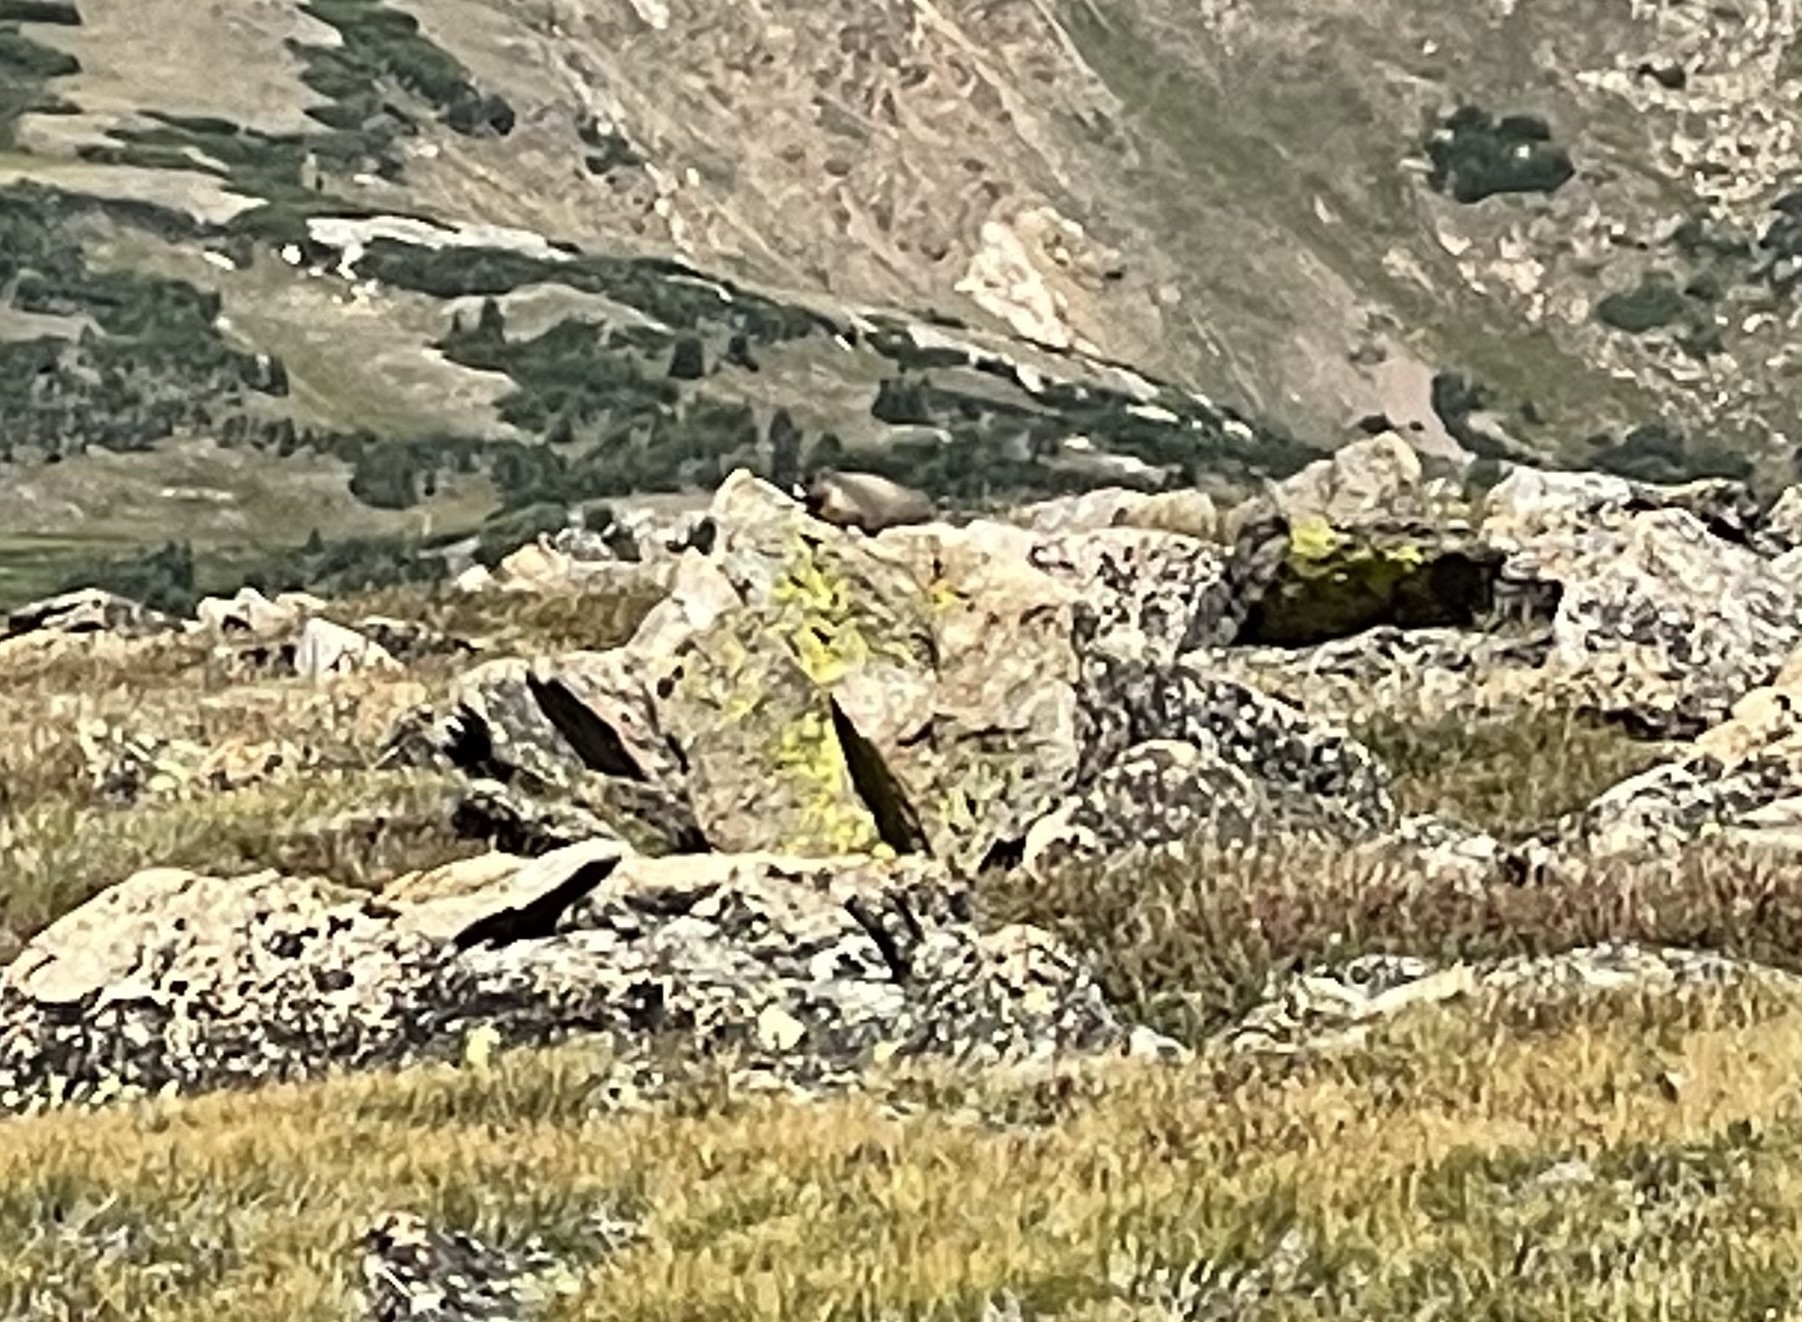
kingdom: Animalia
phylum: Chordata
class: Mammalia
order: Rodentia
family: Sciuridae
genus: Marmota
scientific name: Marmota flaviventris
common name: Yellow-bellied marmot
